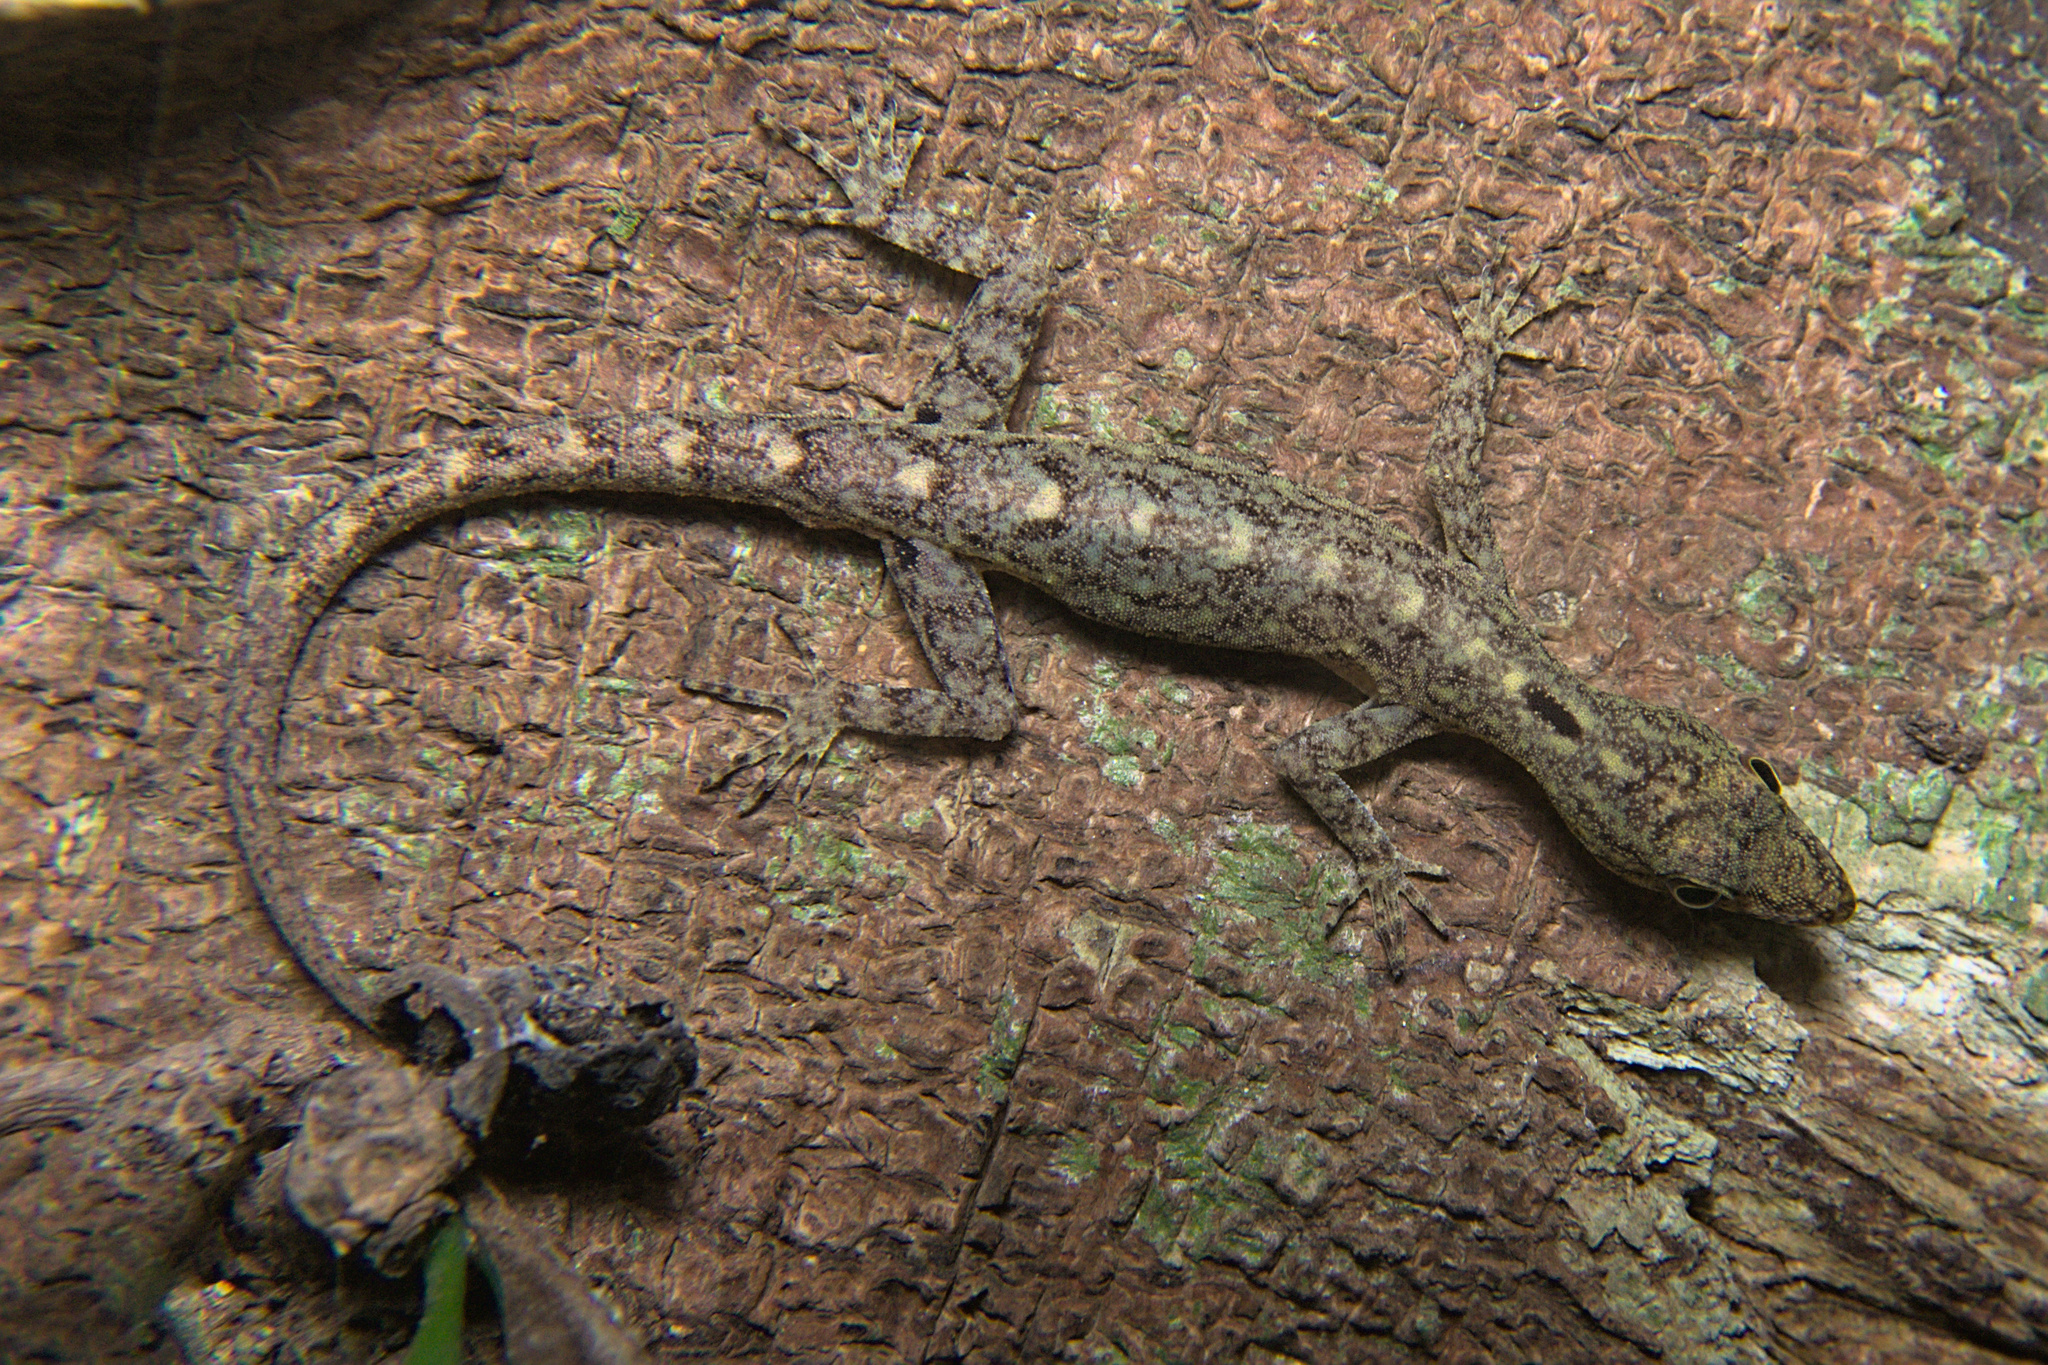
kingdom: Animalia
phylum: Chordata
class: Squamata
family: Gekkonidae
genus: Cnemaspis
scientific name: Cnemaspis littoralis
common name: Coastal day gecko
